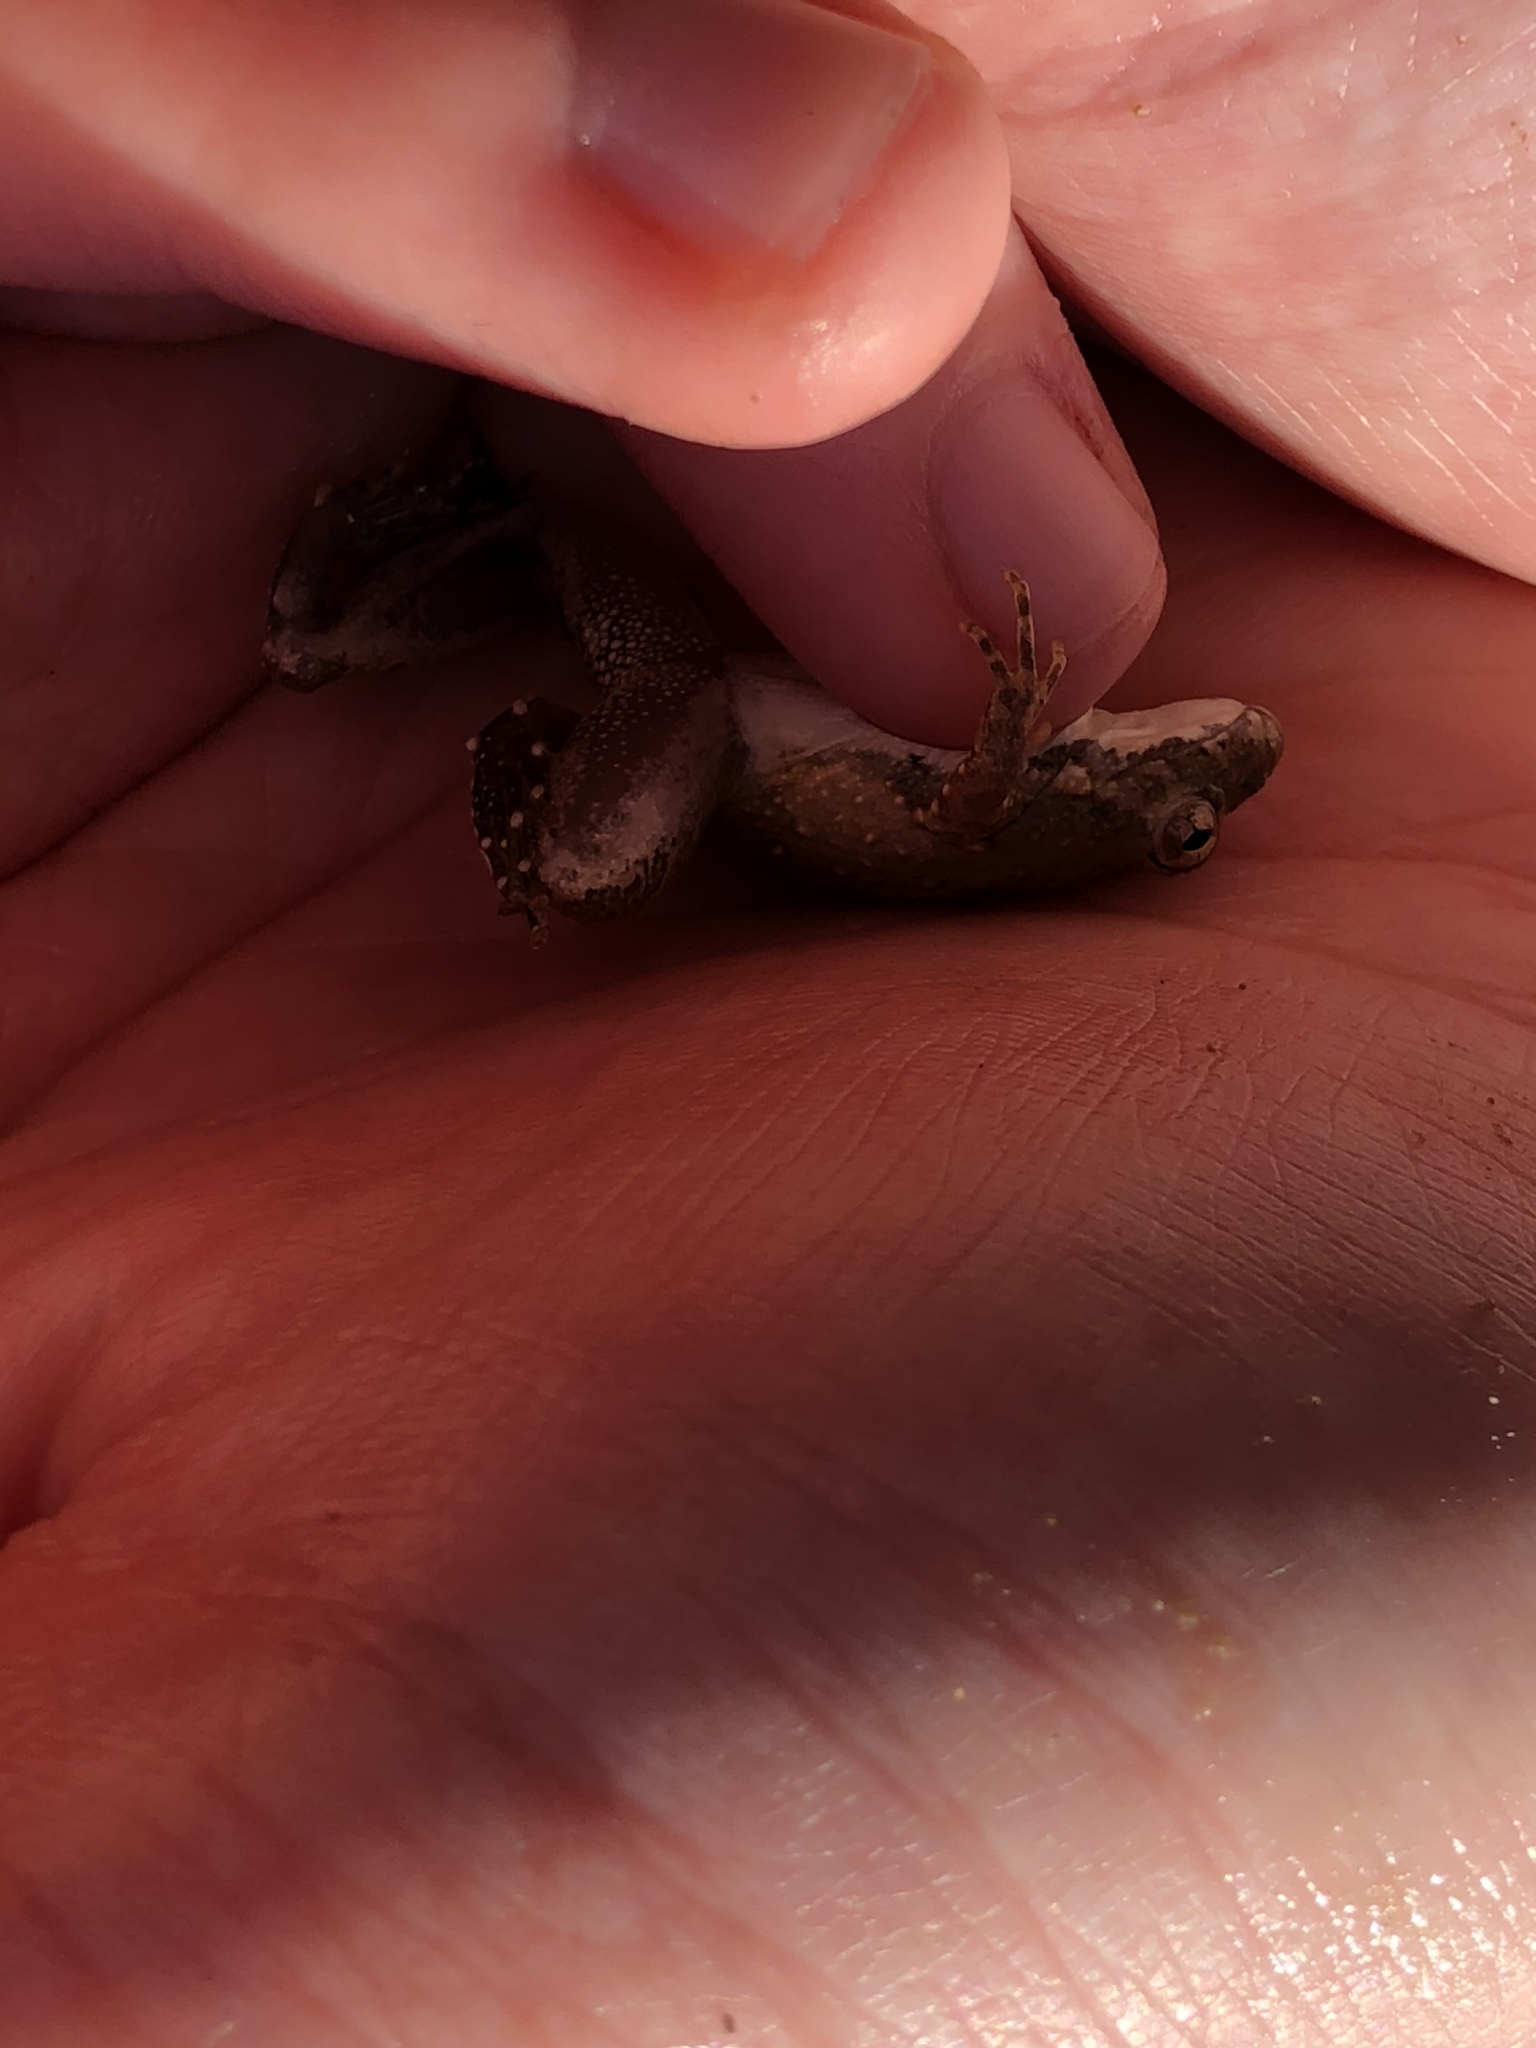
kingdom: Animalia
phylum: Chordata
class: Amphibia
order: Anura
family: Hylidae
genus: Acris
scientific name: Acris blanchardi
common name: Blanchard's cricket frog
